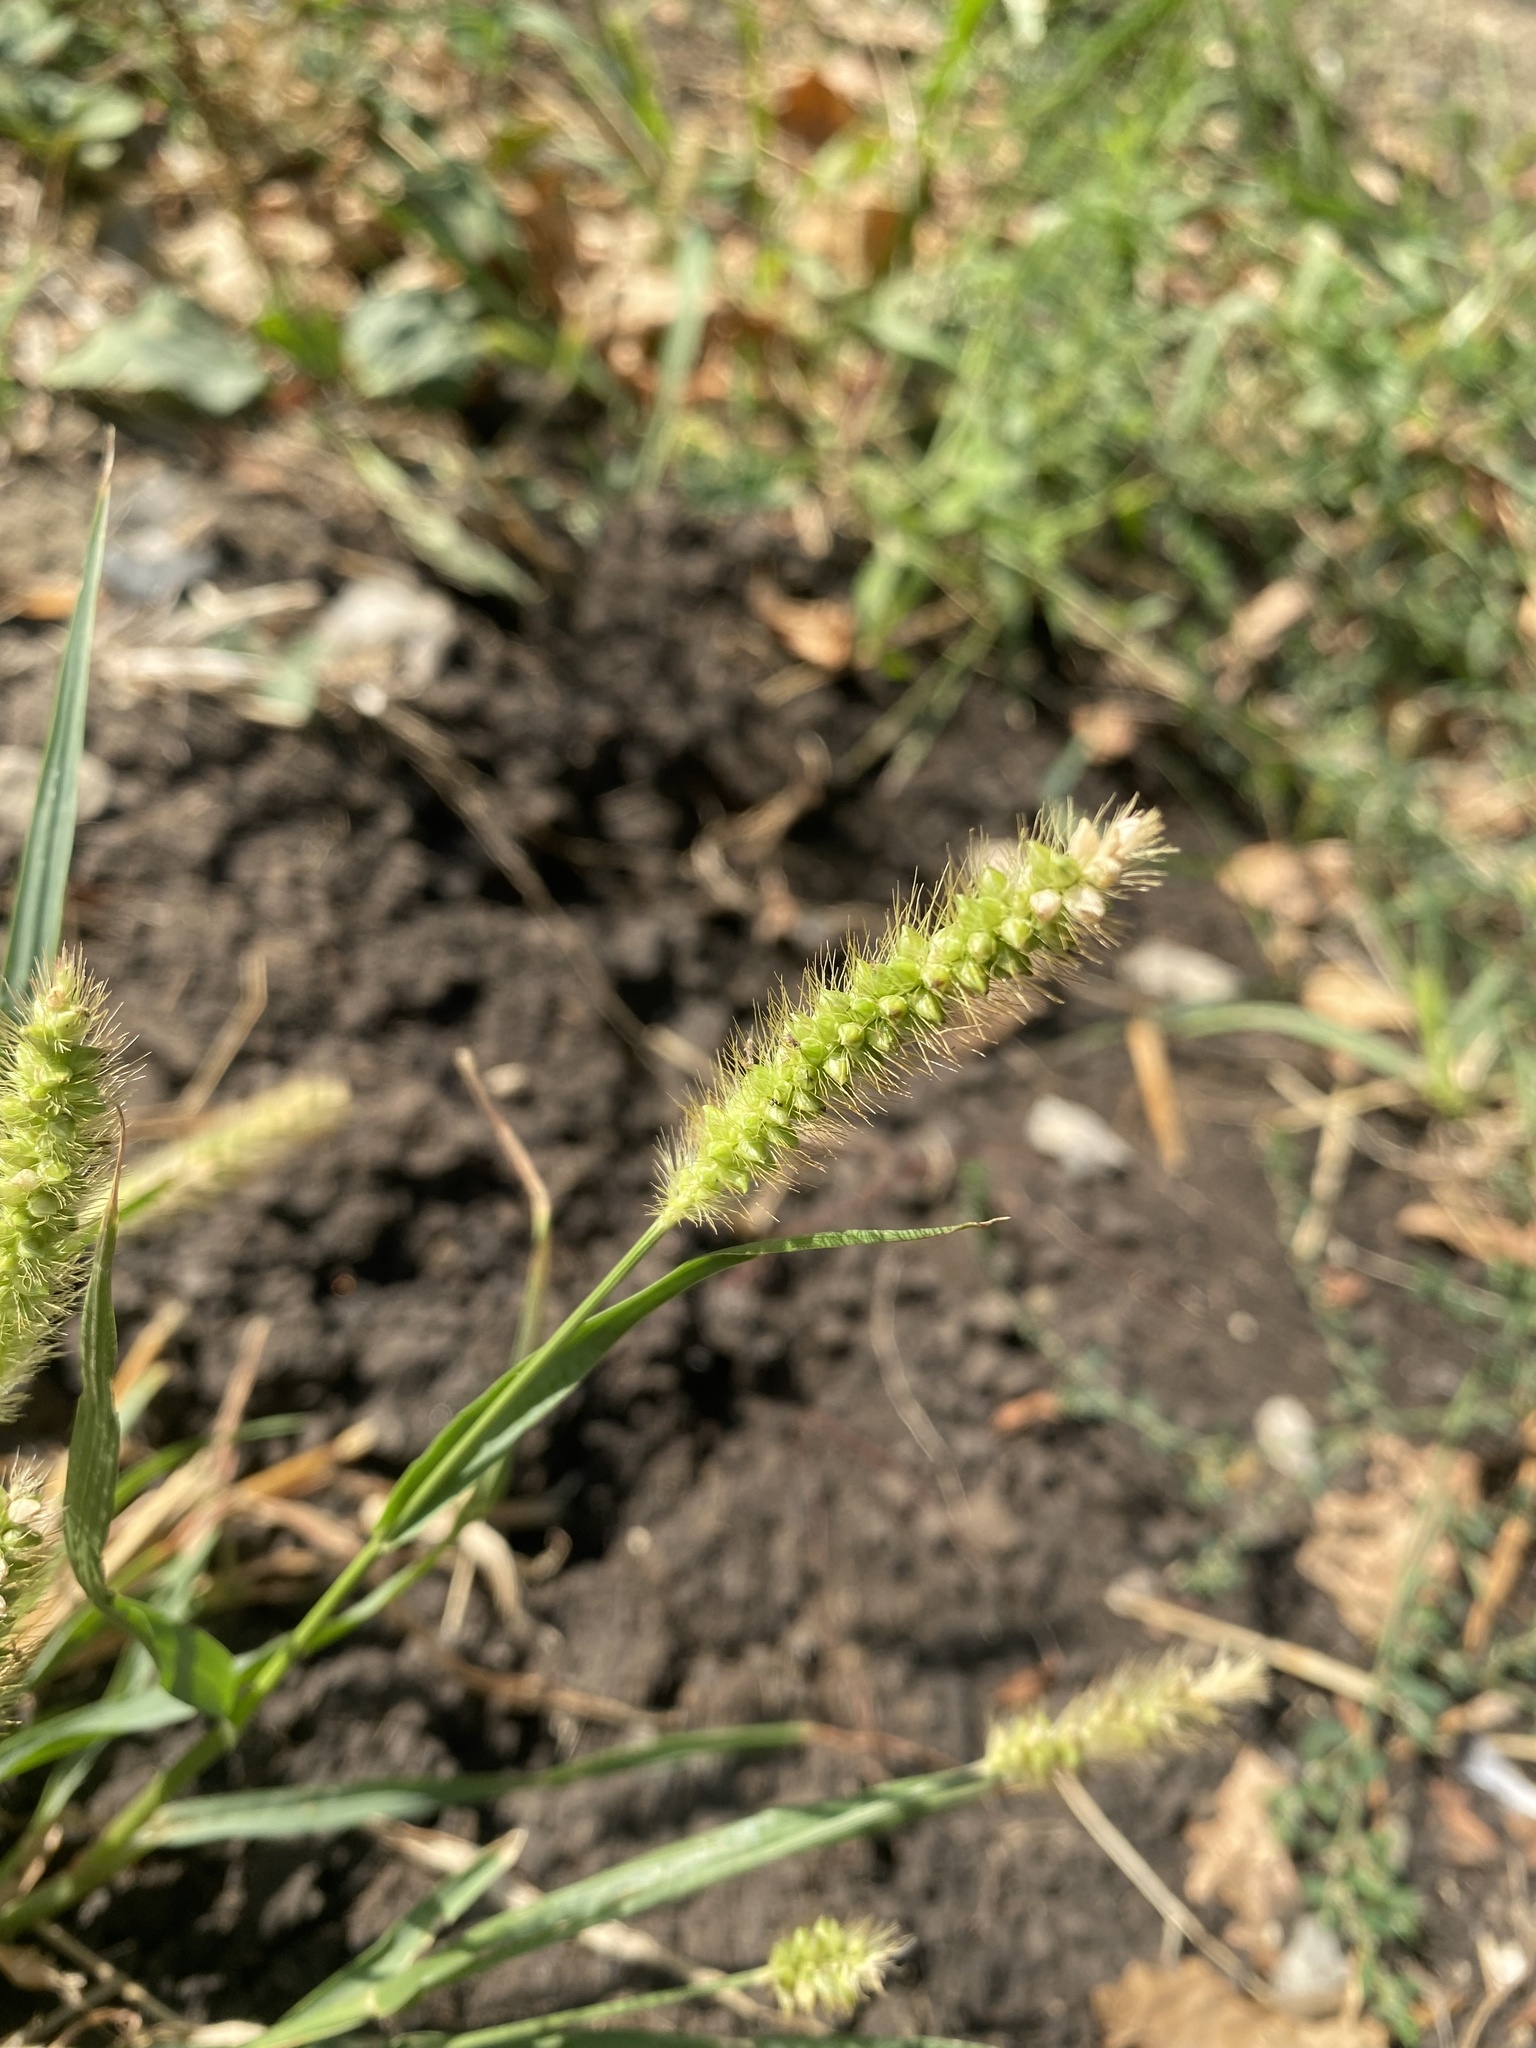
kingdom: Plantae
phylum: Tracheophyta
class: Liliopsida
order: Poales
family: Poaceae
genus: Setaria
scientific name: Setaria pumila
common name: Yellow bristle-grass
